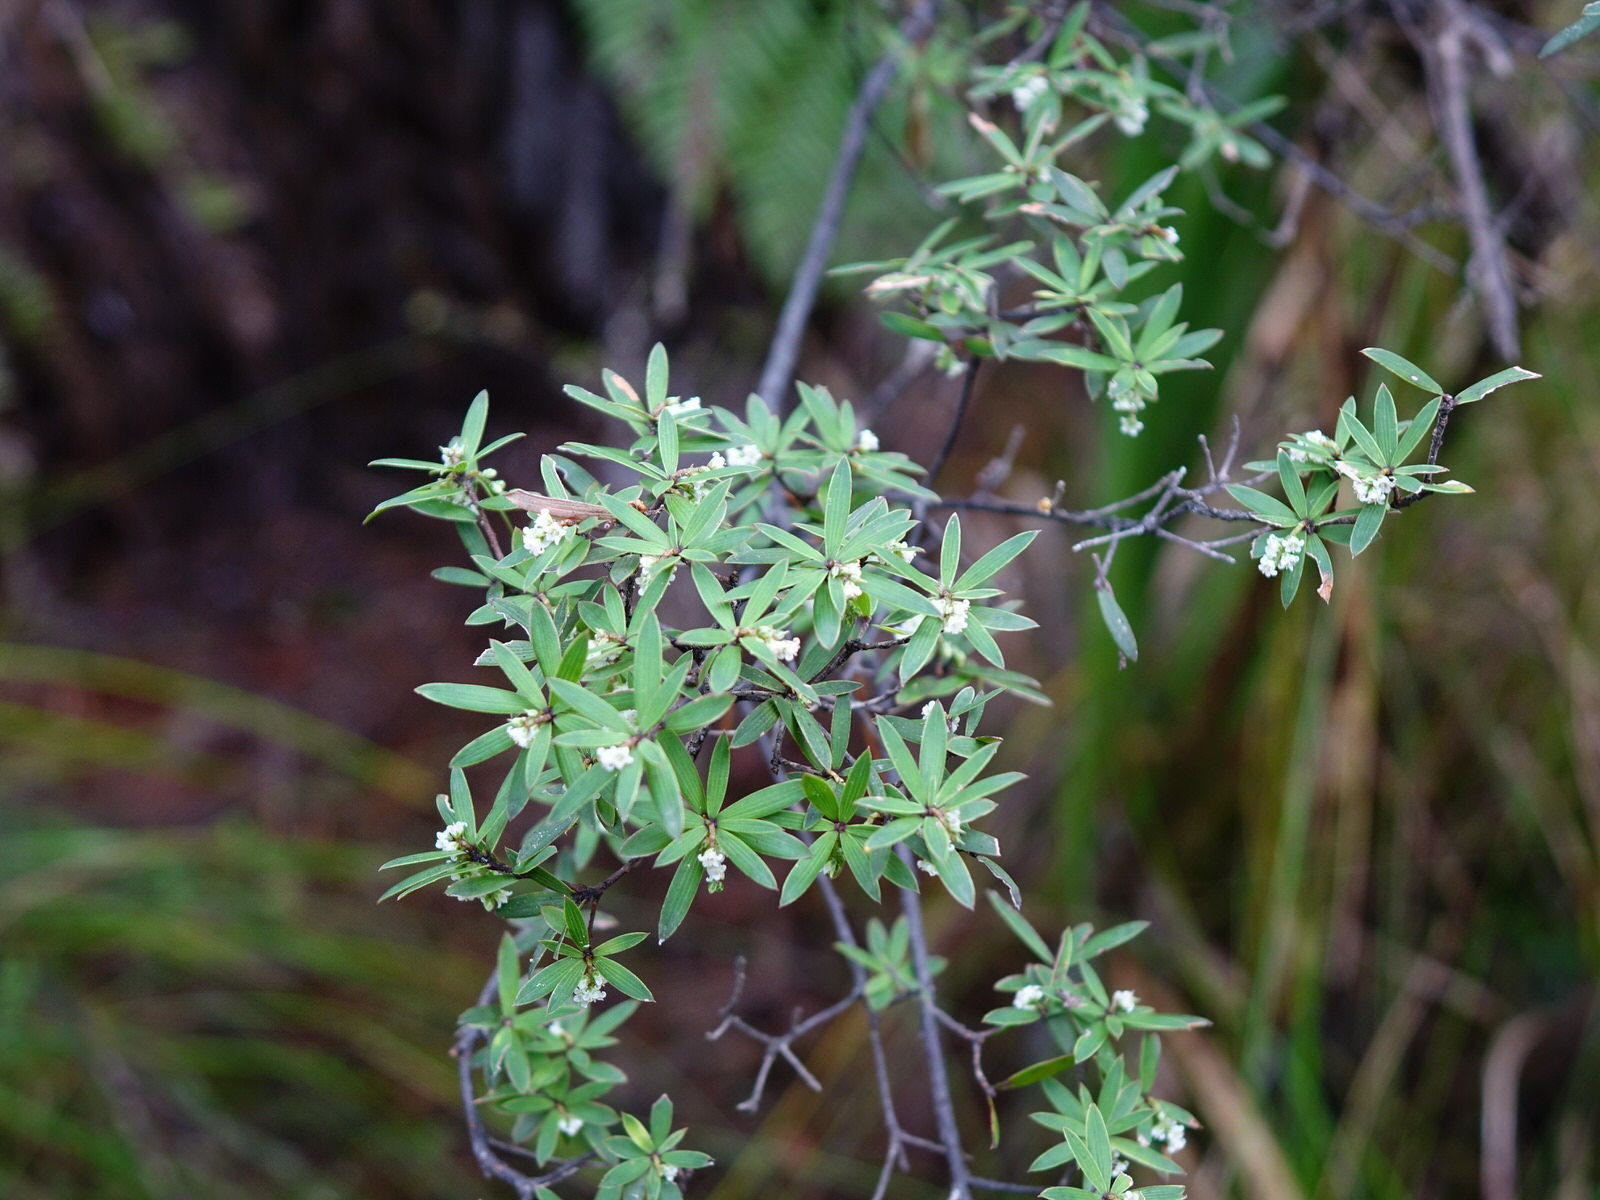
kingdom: Plantae
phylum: Tracheophyta
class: Magnoliopsida
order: Ericales
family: Ericaceae
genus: Leucopogon
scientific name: Leucopogon fasciculatus
